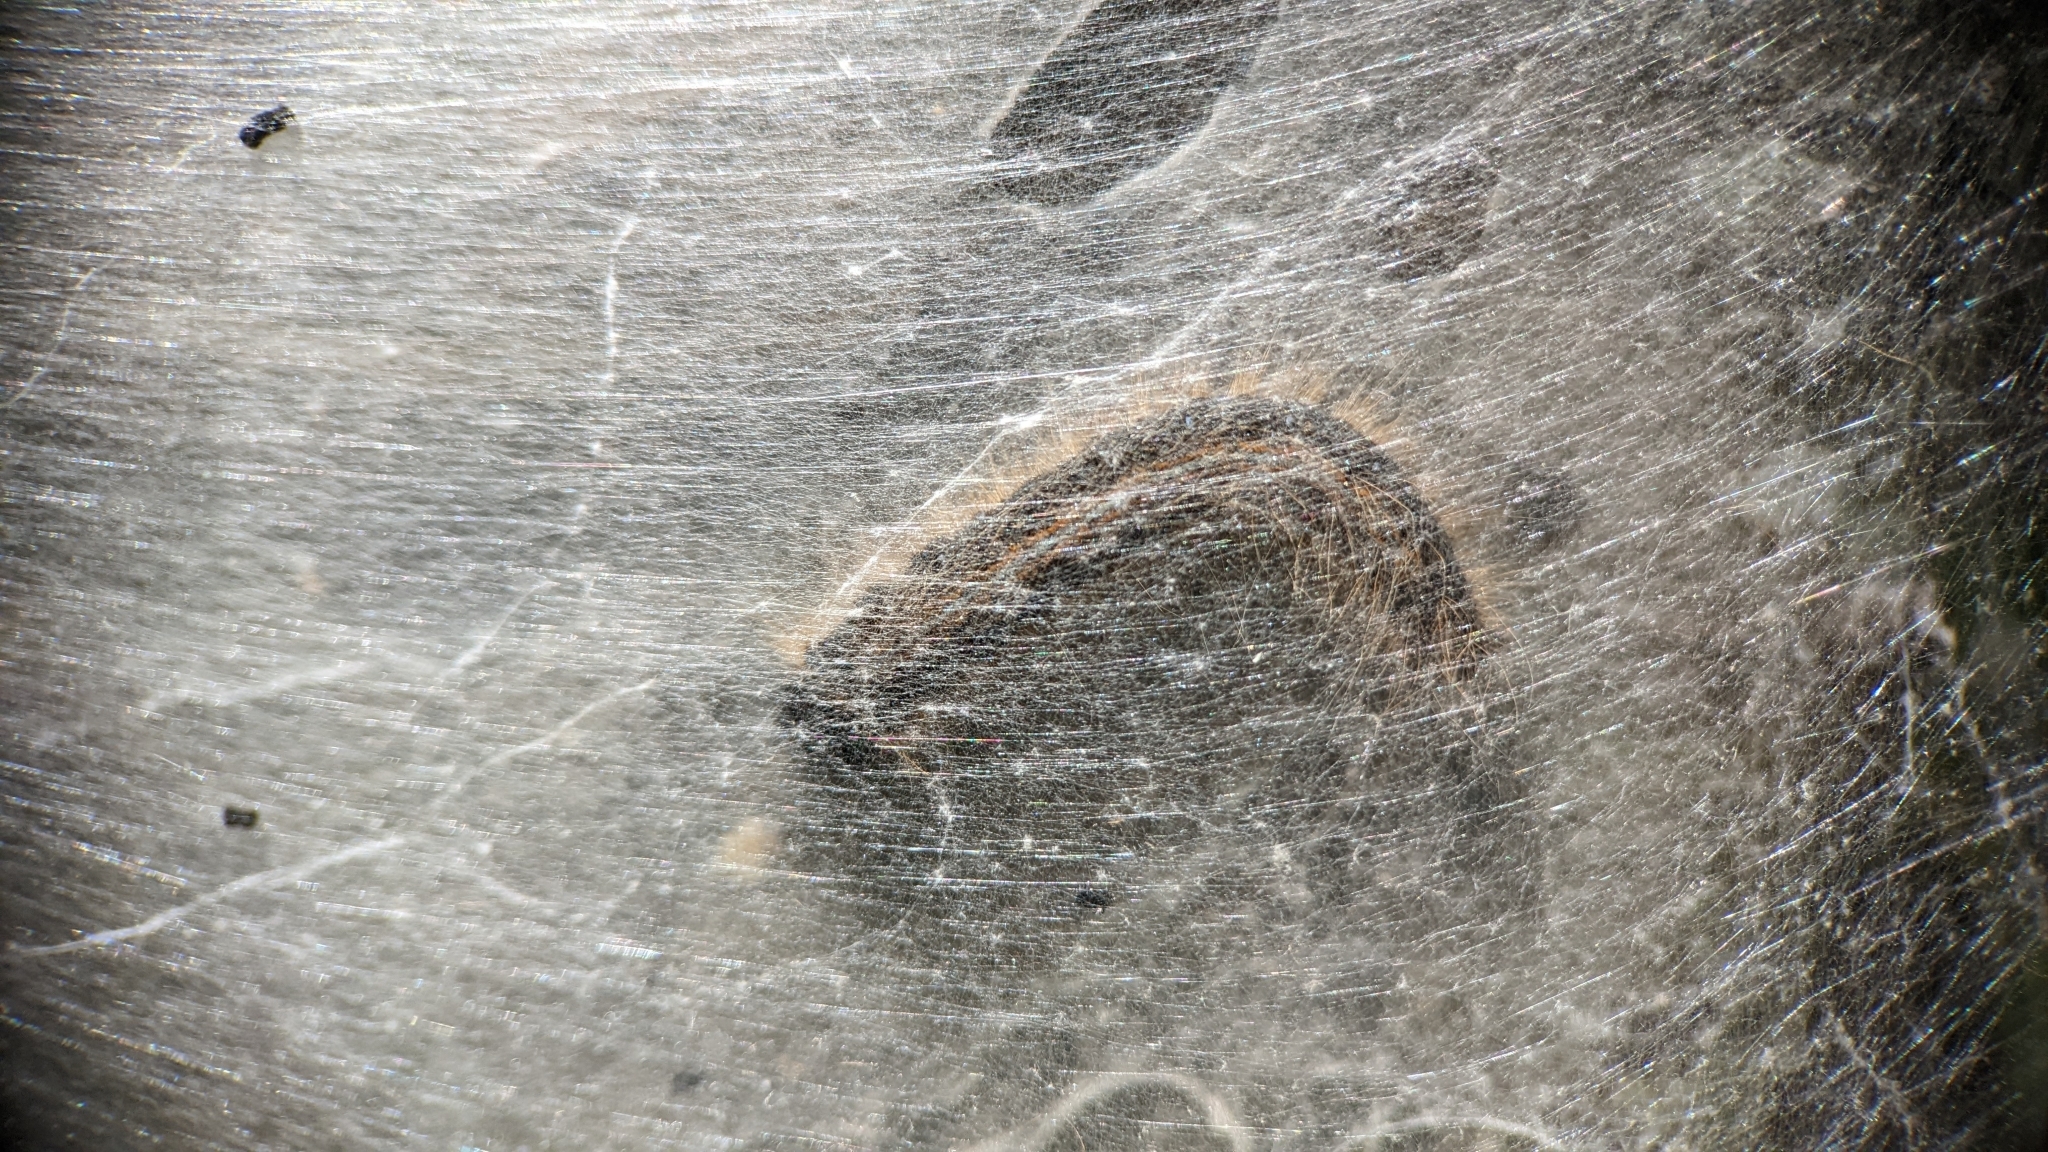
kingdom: Animalia
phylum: Arthropoda
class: Insecta
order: Lepidoptera
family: Lasiocampidae
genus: Malacosoma
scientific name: Malacosoma americana
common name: Eastern tent caterpillar moth
